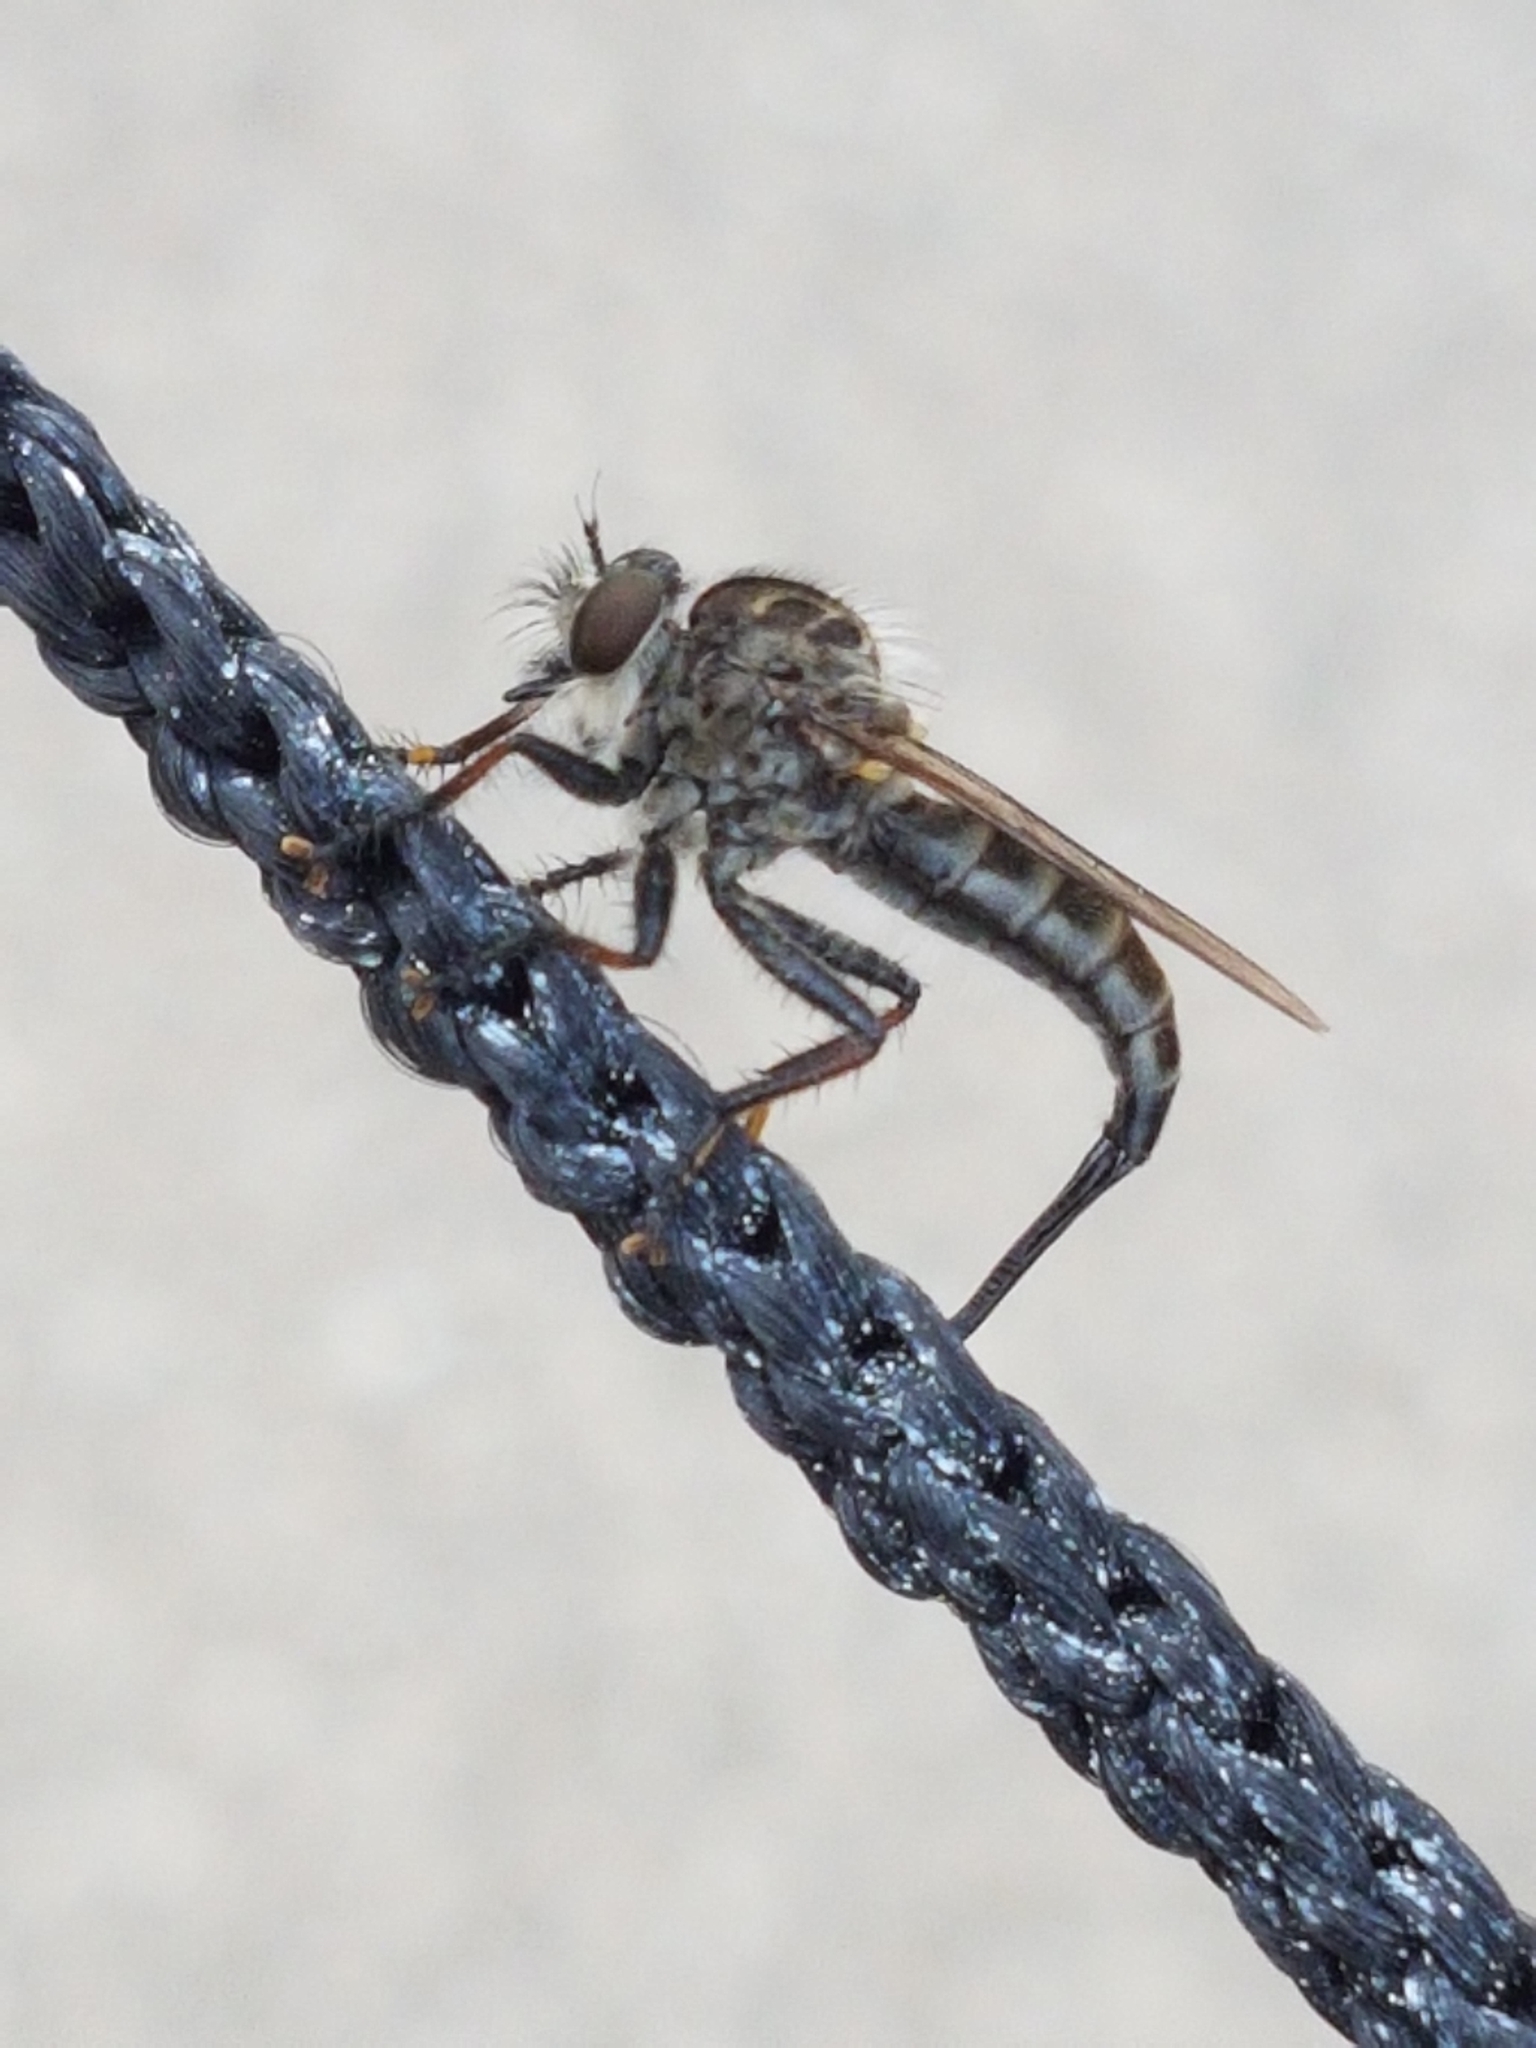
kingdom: Animalia
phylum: Arthropoda
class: Insecta
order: Diptera
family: Asilidae
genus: Efferia
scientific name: Efferia aestuans
